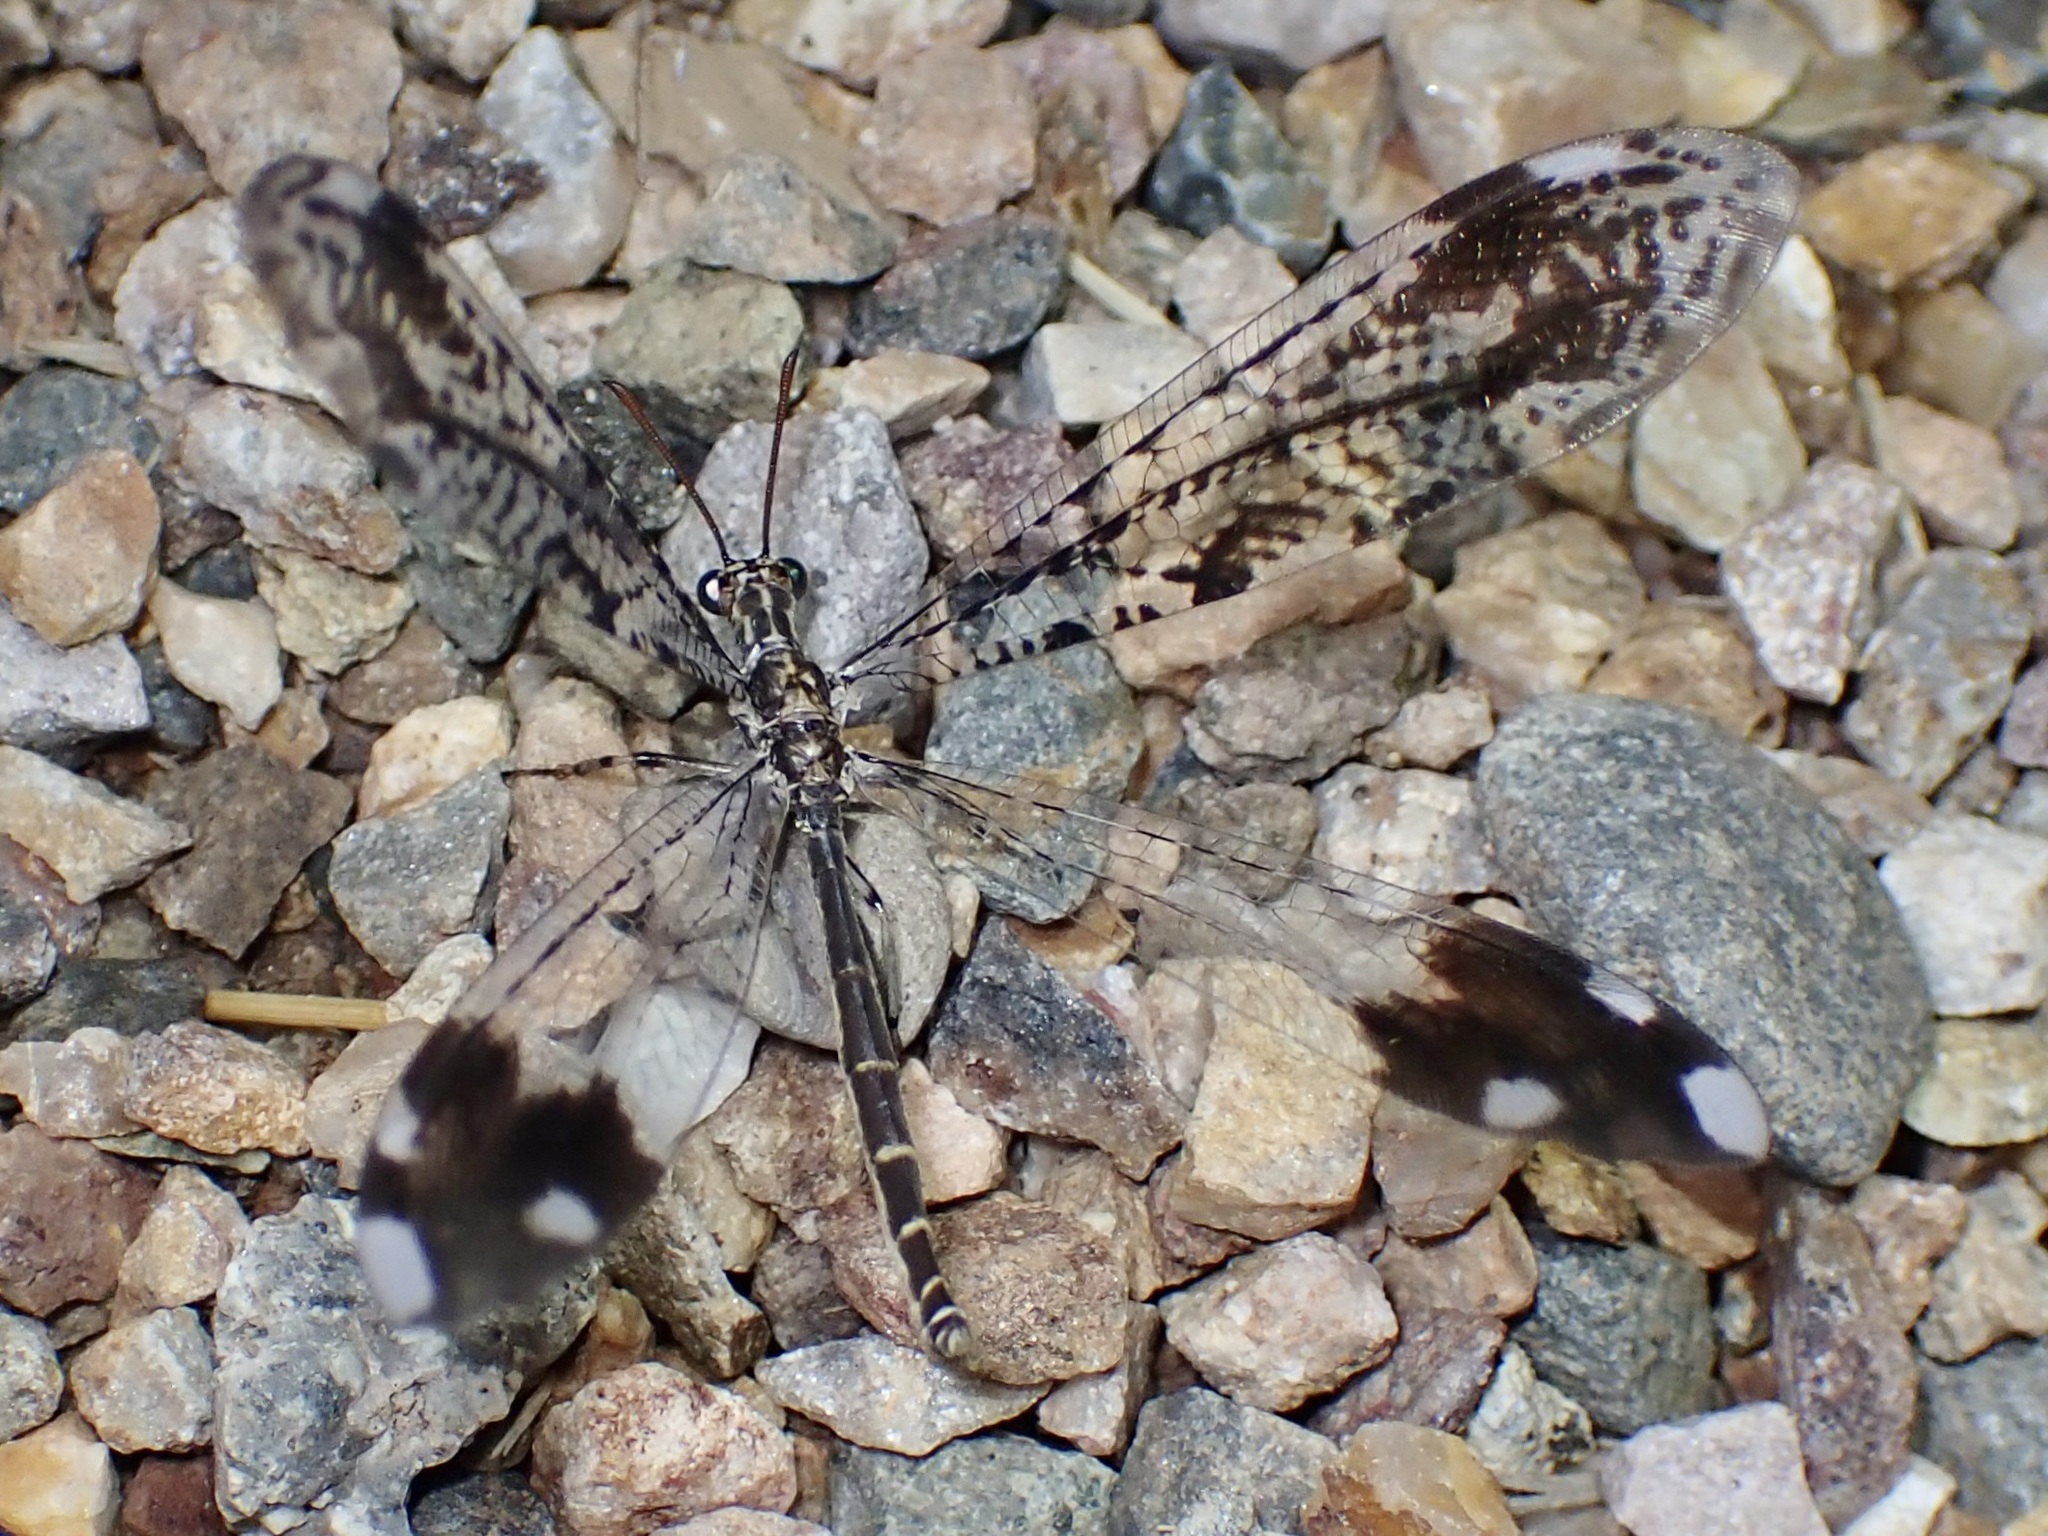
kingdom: Animalia
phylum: Arthropoda
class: Insecta
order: Neuroptera
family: Myrmeleontidae
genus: Glenurus
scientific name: Glenurus snowii
